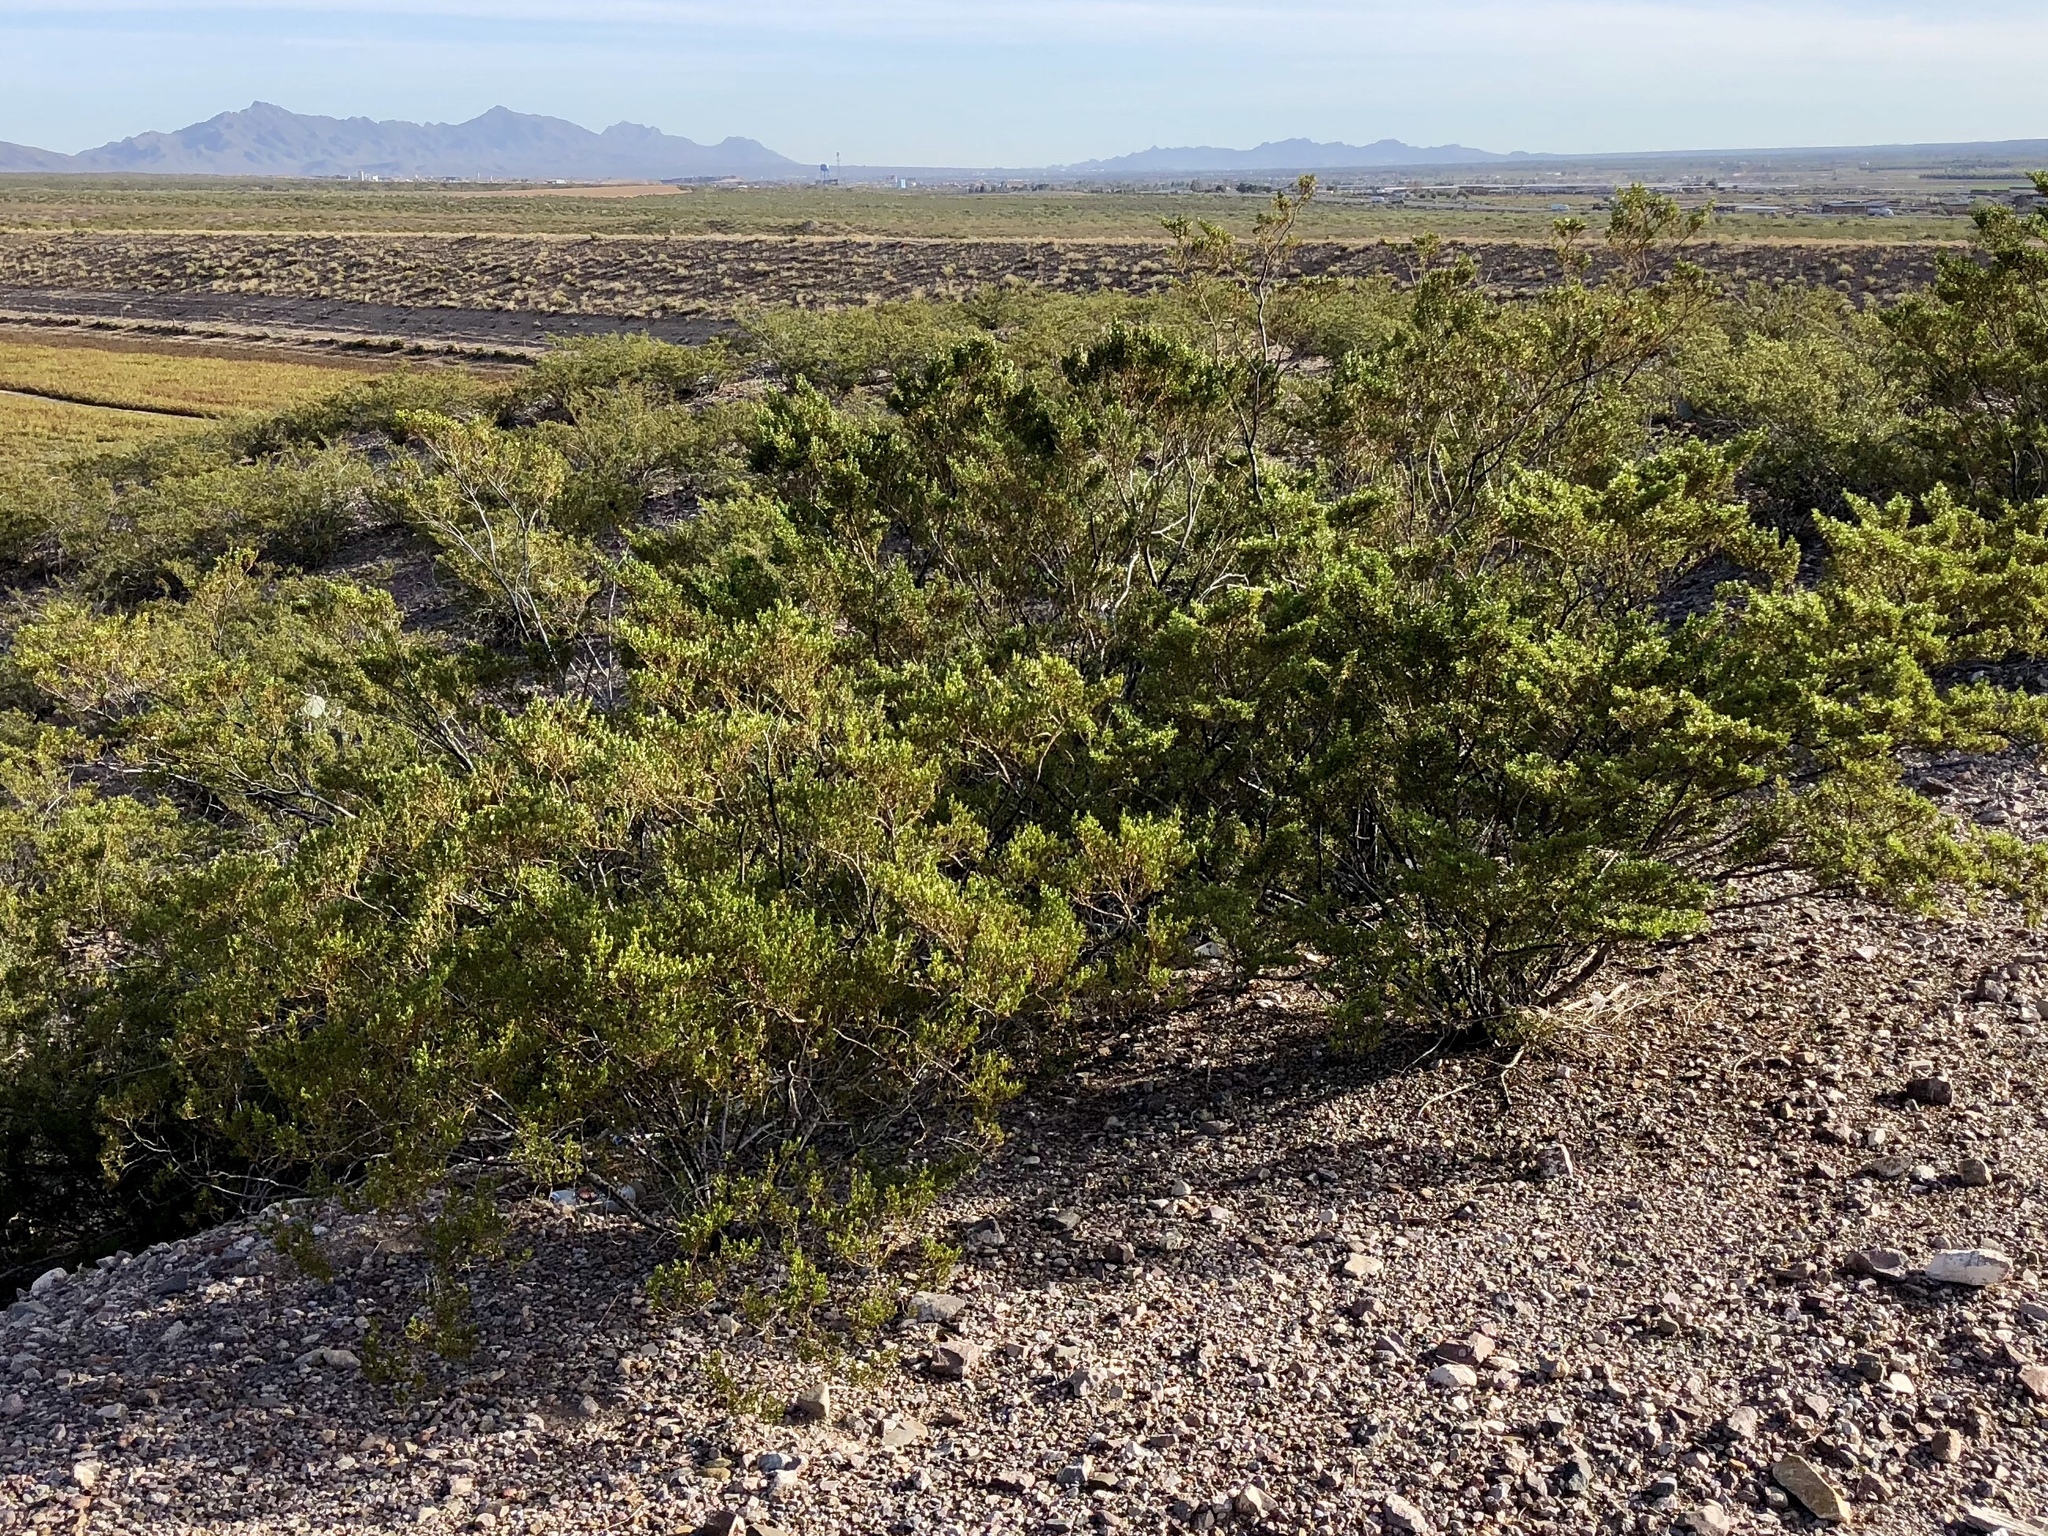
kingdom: Plantae
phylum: Tracheophyta
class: Magnoliopsida
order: Zygophyllales
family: Zygophyllaceae
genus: Larrea
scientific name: Larrea tridentata
